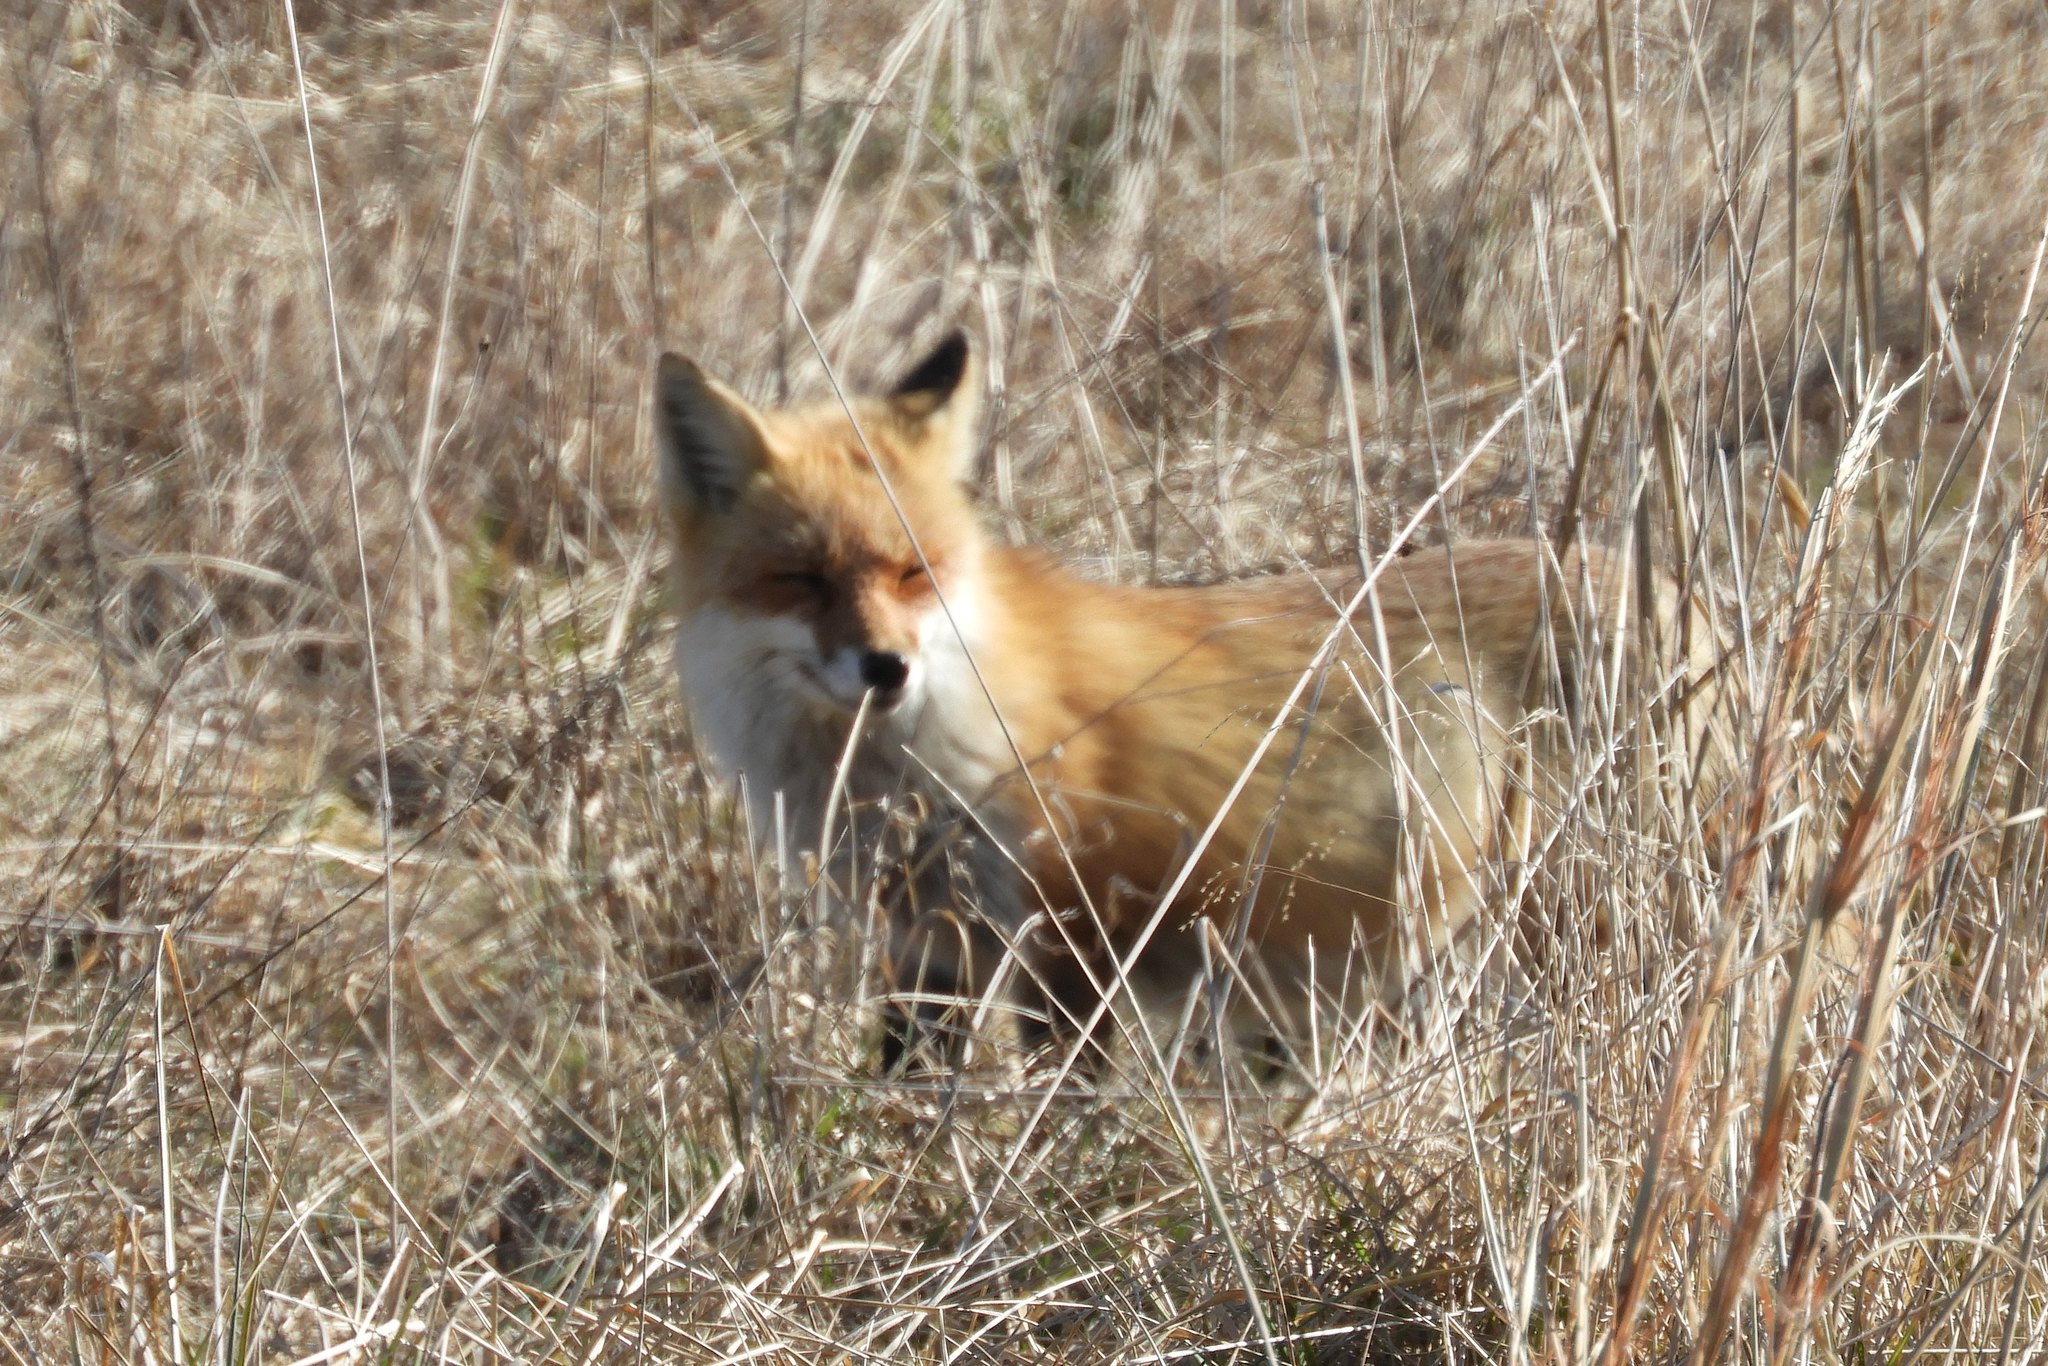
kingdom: Animalia
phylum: Chordata
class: Mammalia
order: Carnivora
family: Canidae
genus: Vulpes
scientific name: Vulpes vulpes
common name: Red fox
